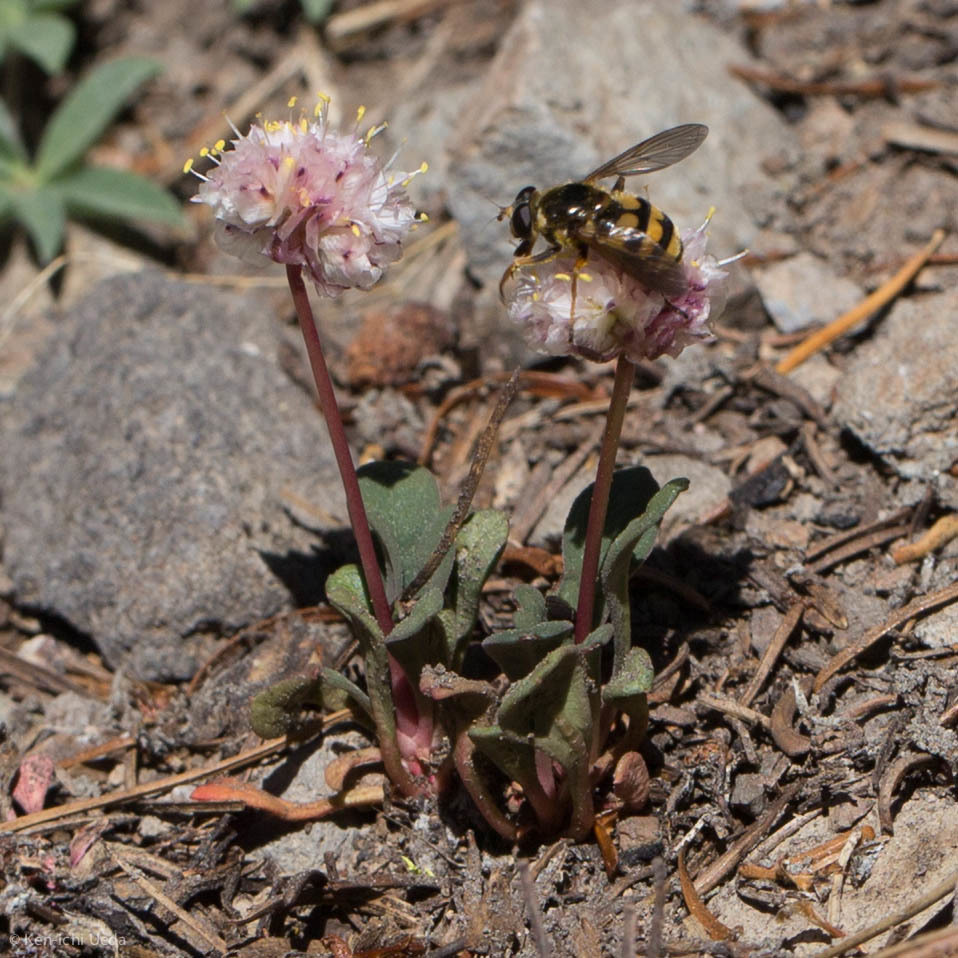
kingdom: Plantae
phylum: Tracheophyta
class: Magnoliopsida
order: Caryophyllales
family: Montiaceae
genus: Calyptridium
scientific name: Calyptridium monospermum
